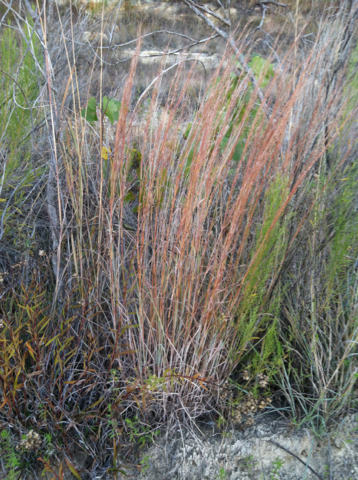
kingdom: Plantae
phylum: Tracheophyta
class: Liliopsida
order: Poales
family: Poaceae
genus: Schizachyrium
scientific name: Schizachyrium scoparium
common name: Little bluestem
